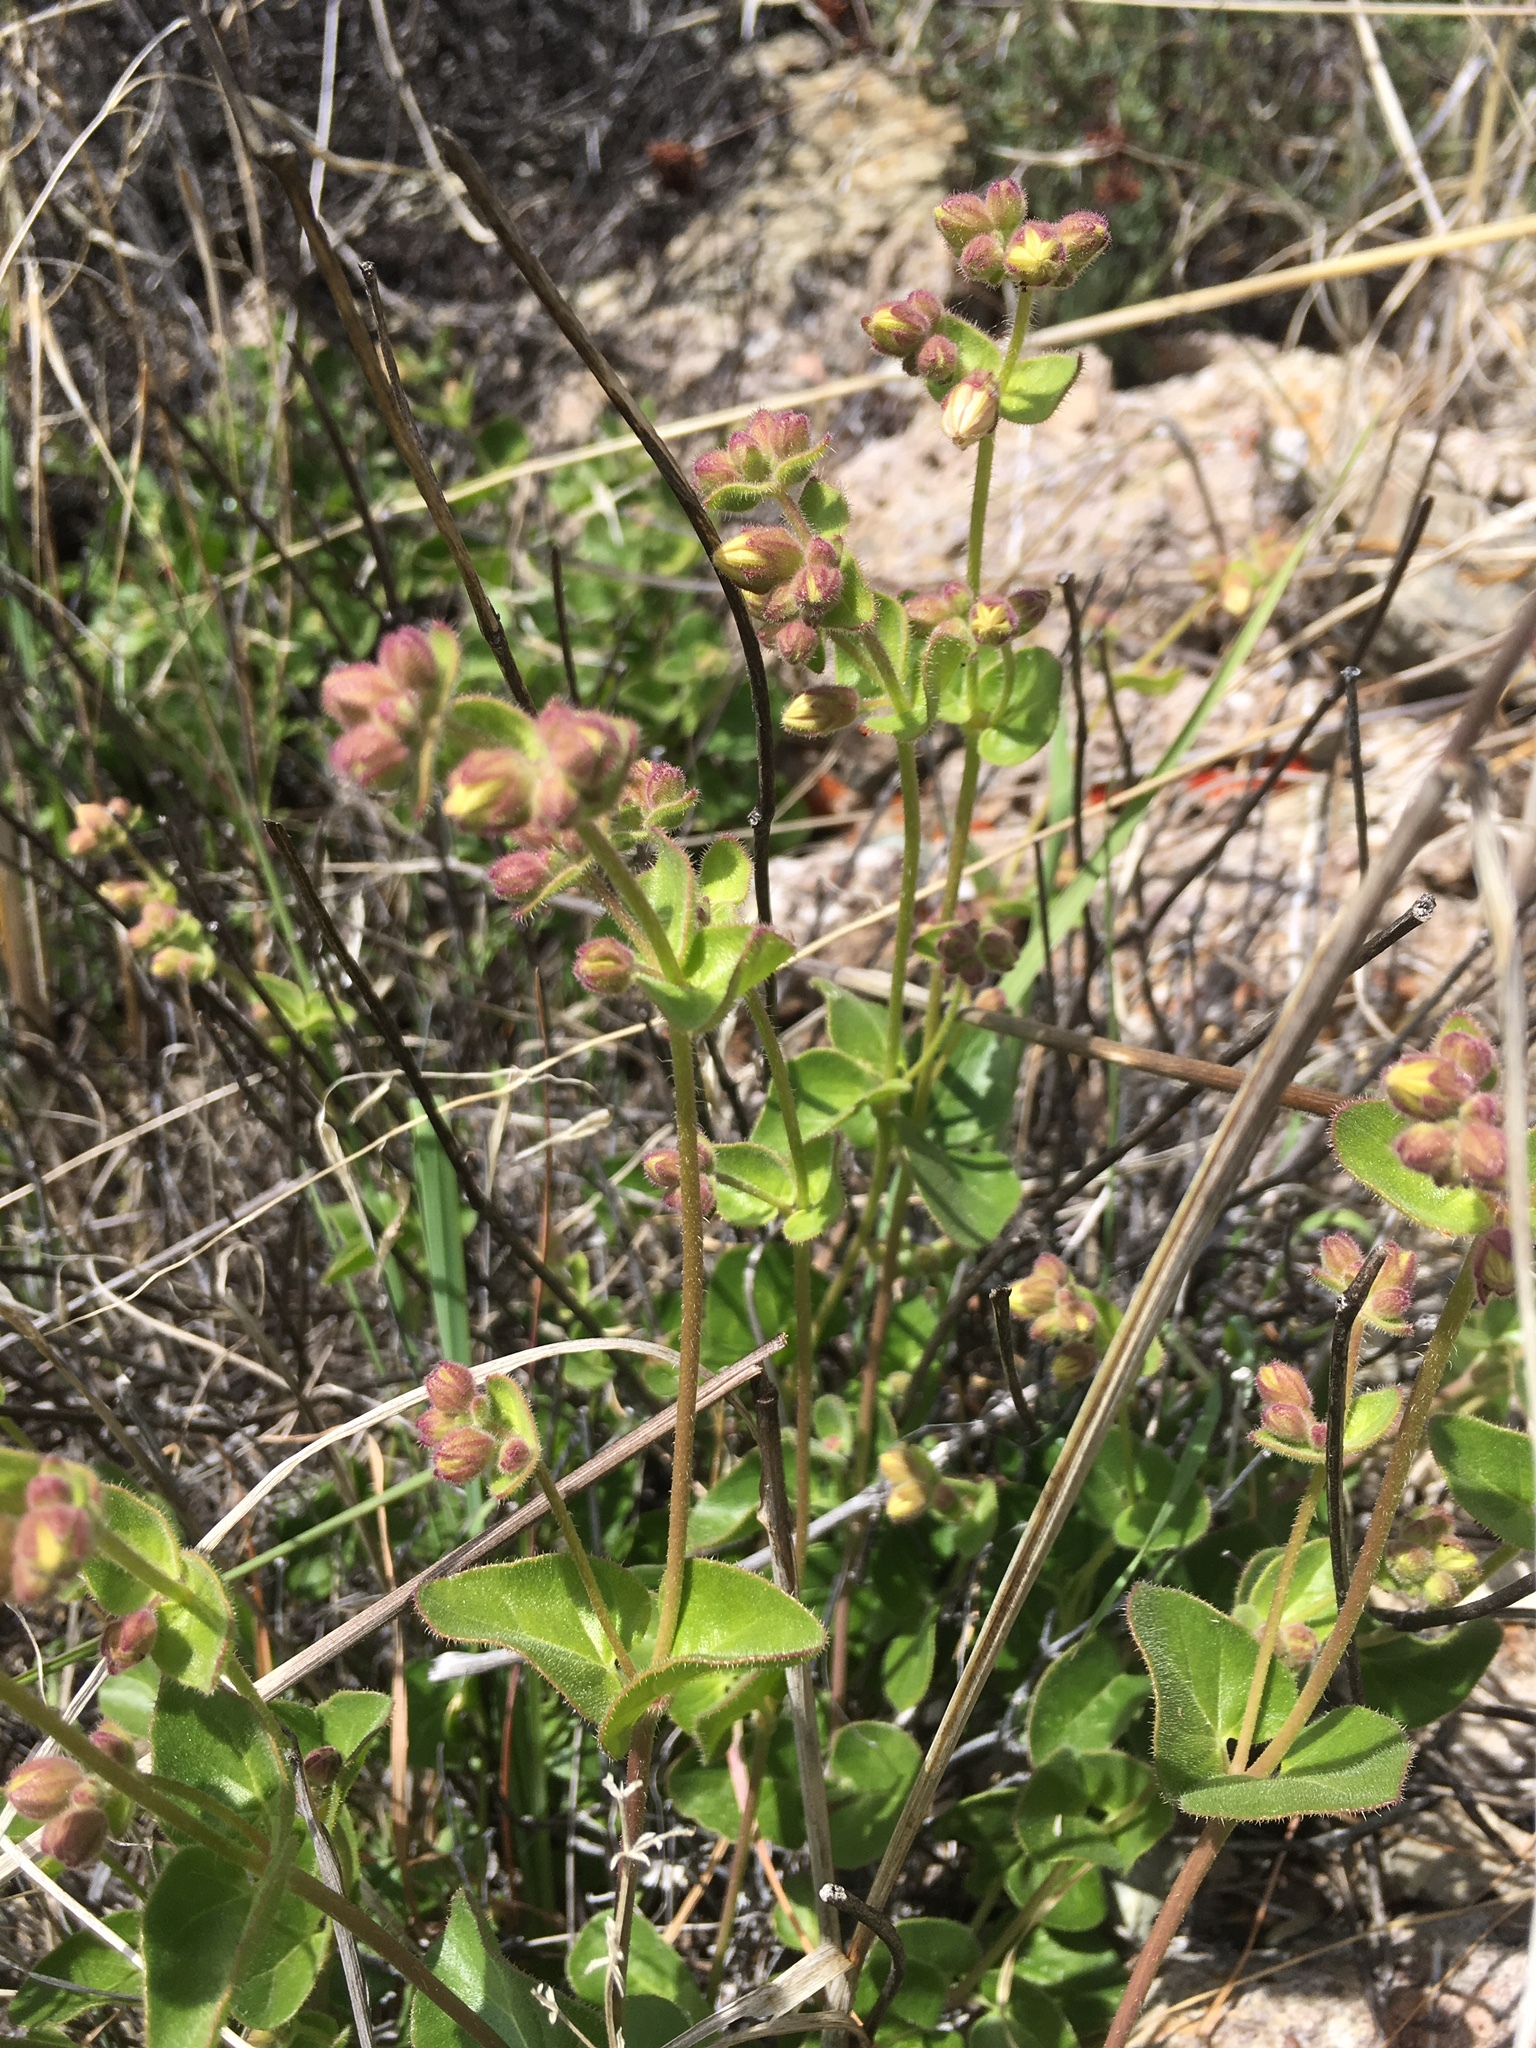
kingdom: Plantae
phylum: Tracheophyta
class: Magnoliopsida
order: Caryophyllales
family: Nyctaginaceae
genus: Mirabilis
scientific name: Mirabilis laevis
